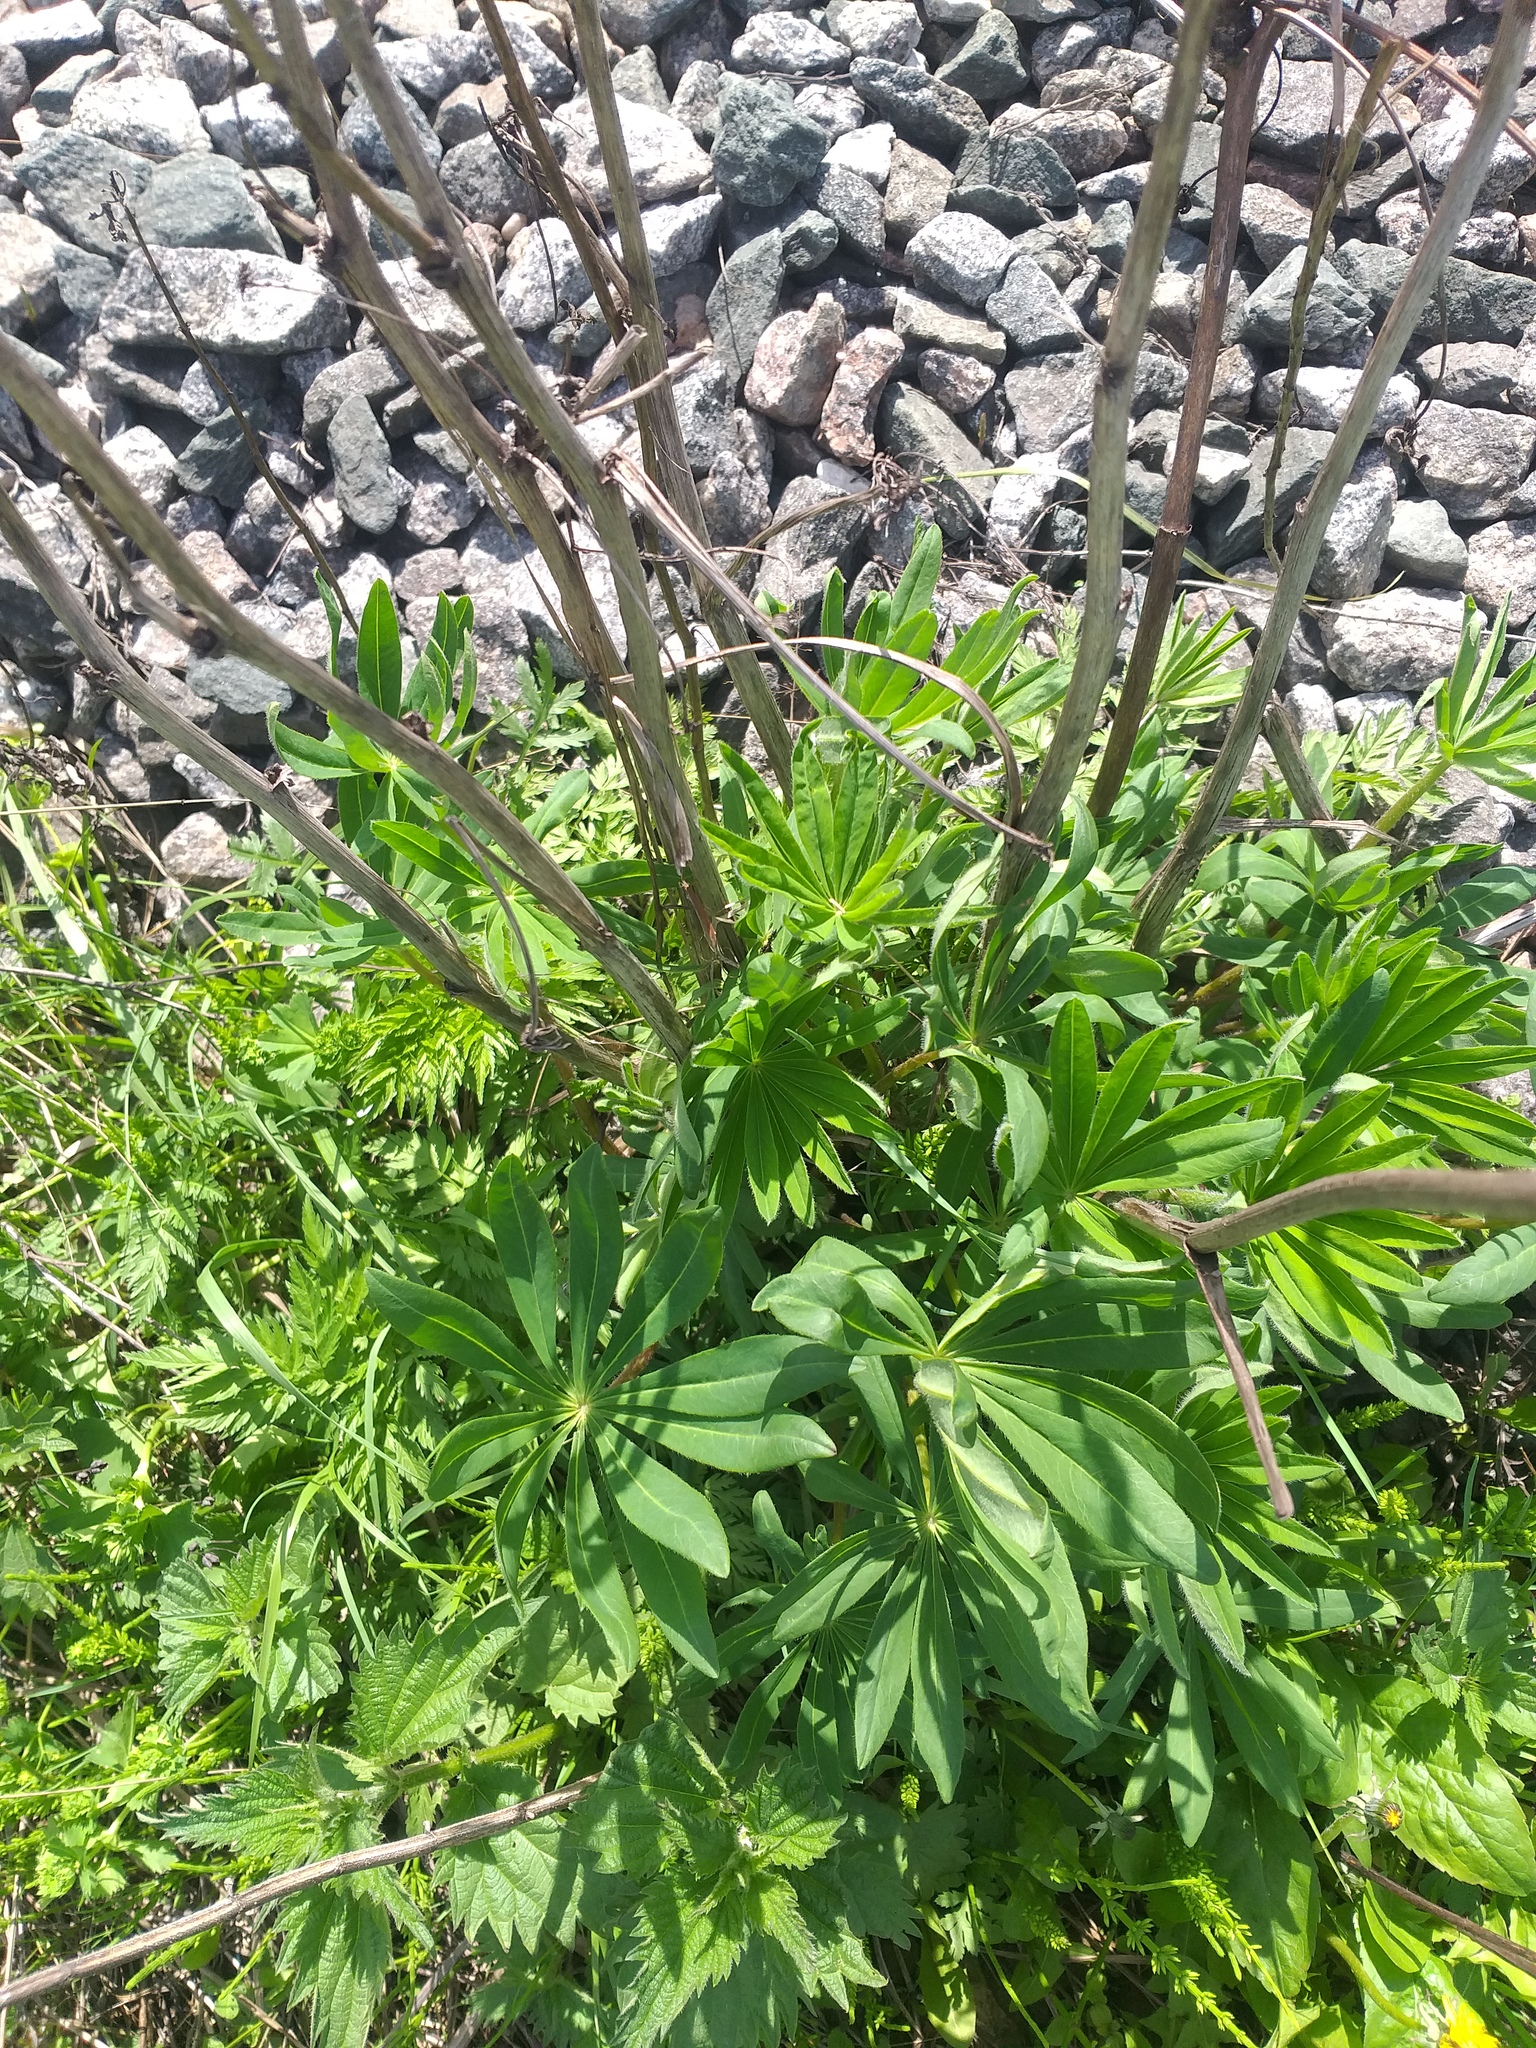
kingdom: Plantae
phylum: Tracheophyta
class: Magnoliopsida
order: Fabales
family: Fabaceae
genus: Lupinus
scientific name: Lupinus polyphyllus
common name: Garden lupin
